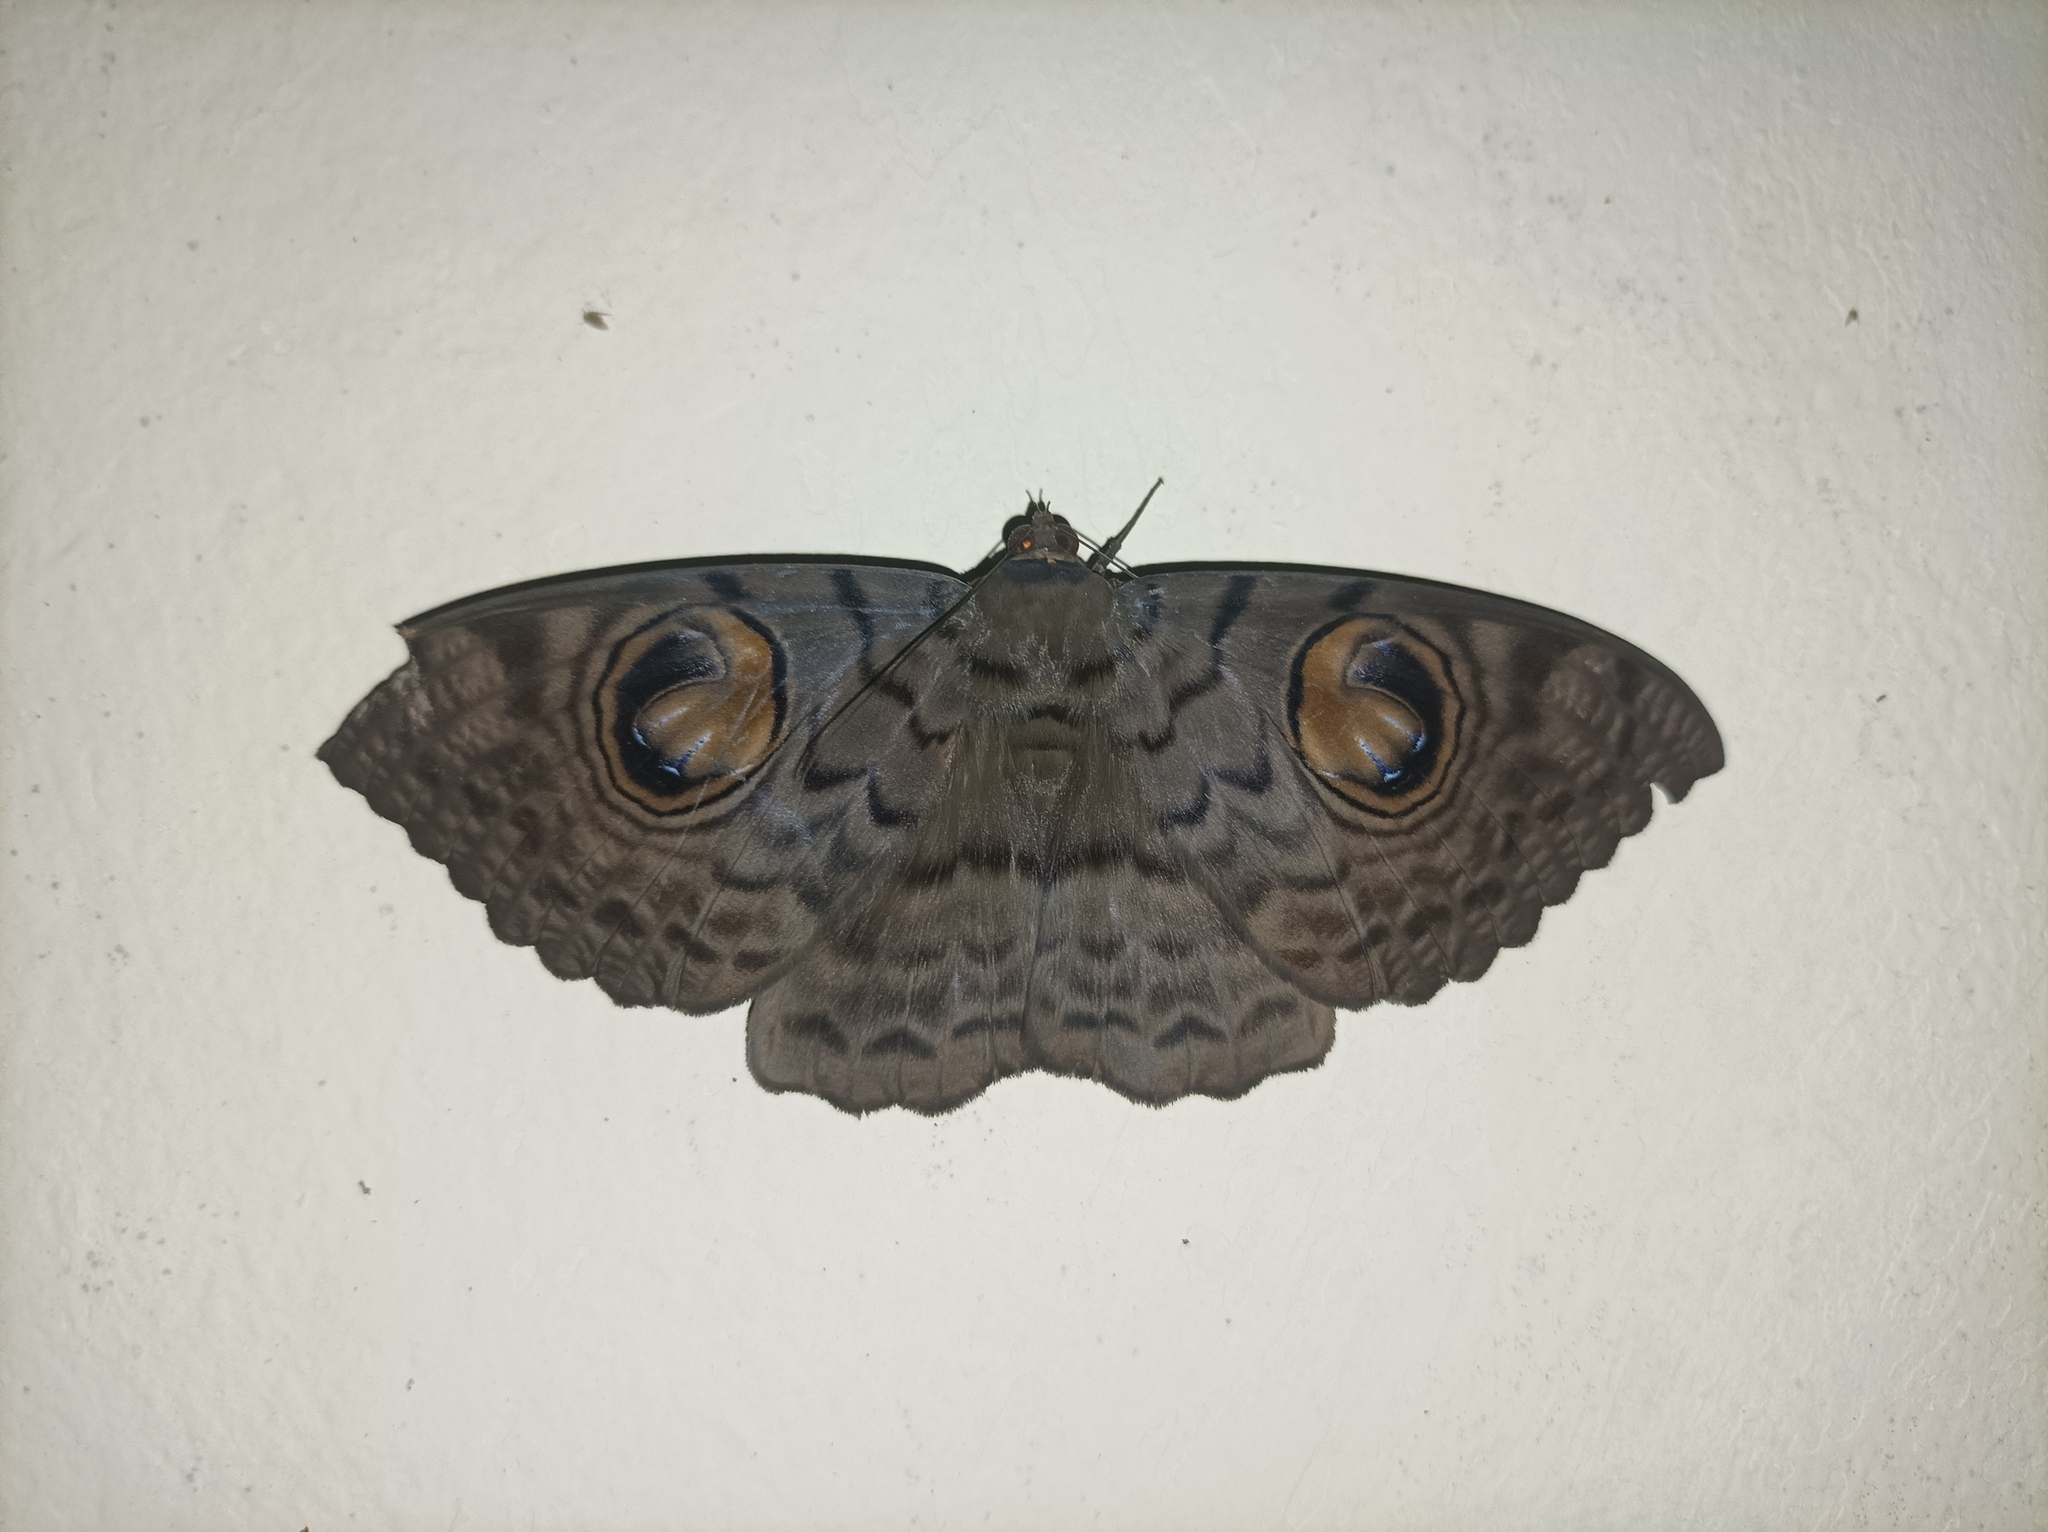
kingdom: Animalia
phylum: Arthropoda
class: Insecta
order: Lepidoptera
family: Erebidae
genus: Erebus
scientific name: Erebus macrops
